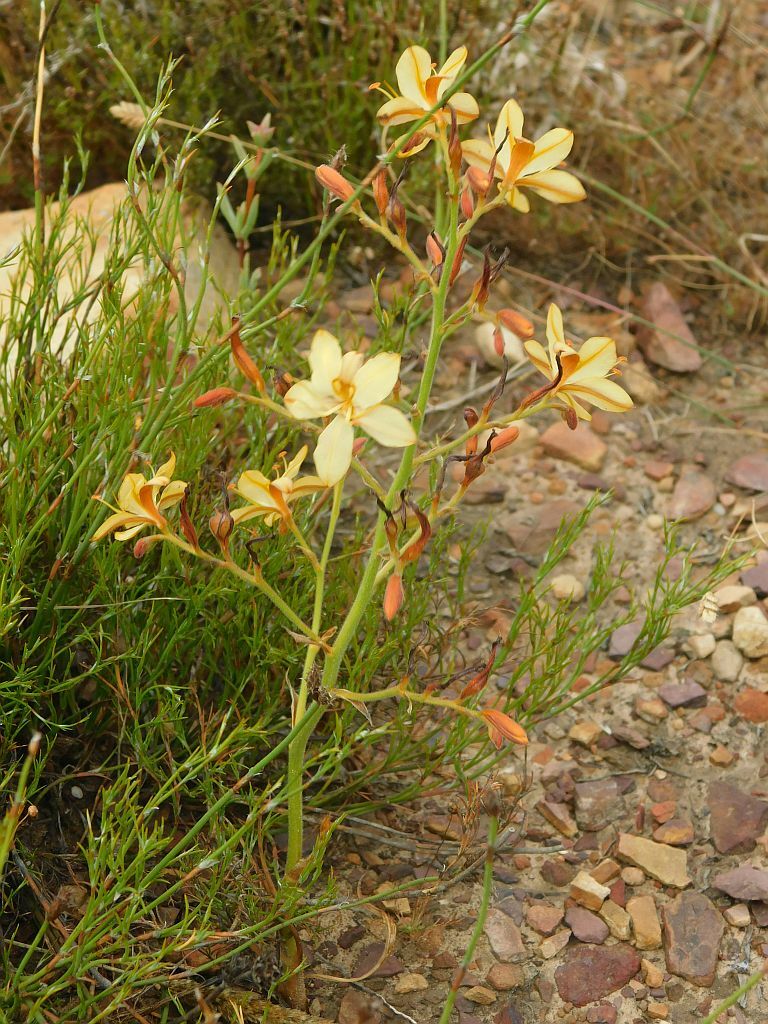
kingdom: Plantae
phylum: Tracheophyta
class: Liliopsida
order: Commelinales
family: Haemodoraceae
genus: Wachendorfia
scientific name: Wachendorfia paniculata
